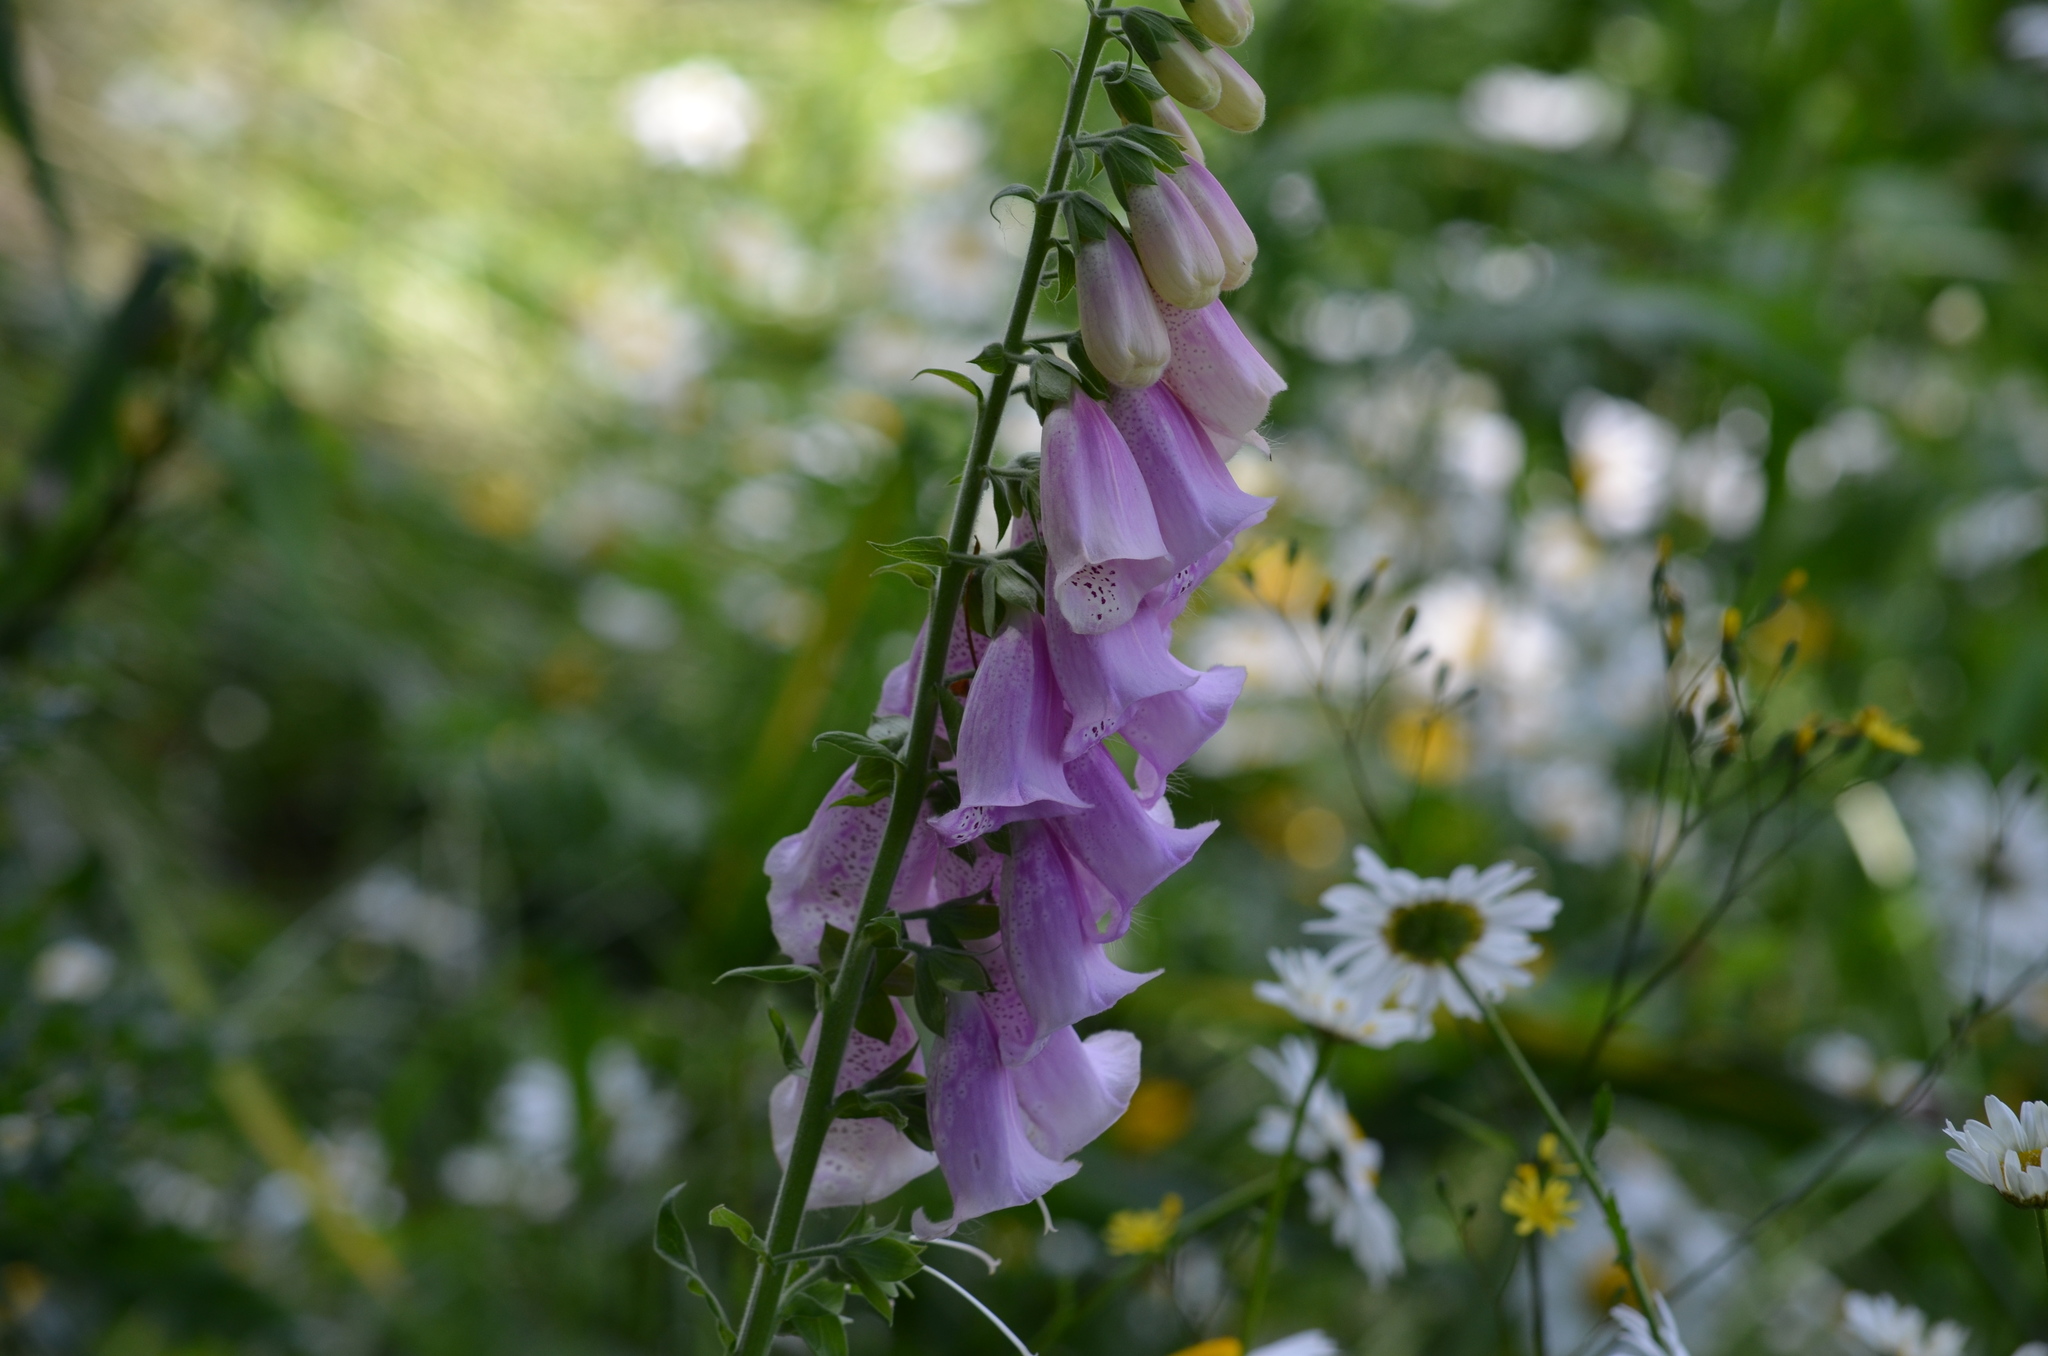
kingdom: Plantae
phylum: Tracheophyta
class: Magnoliopsida
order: Lamiales
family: Plantaginaceae
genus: Digitalis
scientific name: Digitalis purpurea
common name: Foxglove
